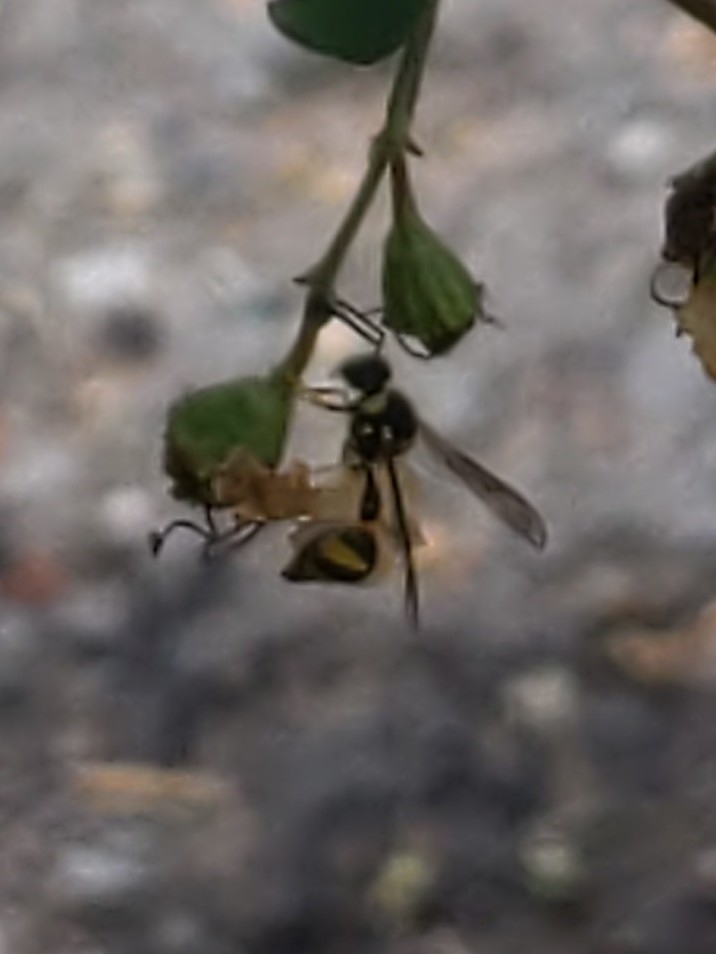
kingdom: Animalia
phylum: Arthropoda
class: Insecta
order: Hymenoptera
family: Vespidae
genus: Eumenes
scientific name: Eumenes mediterraneus
